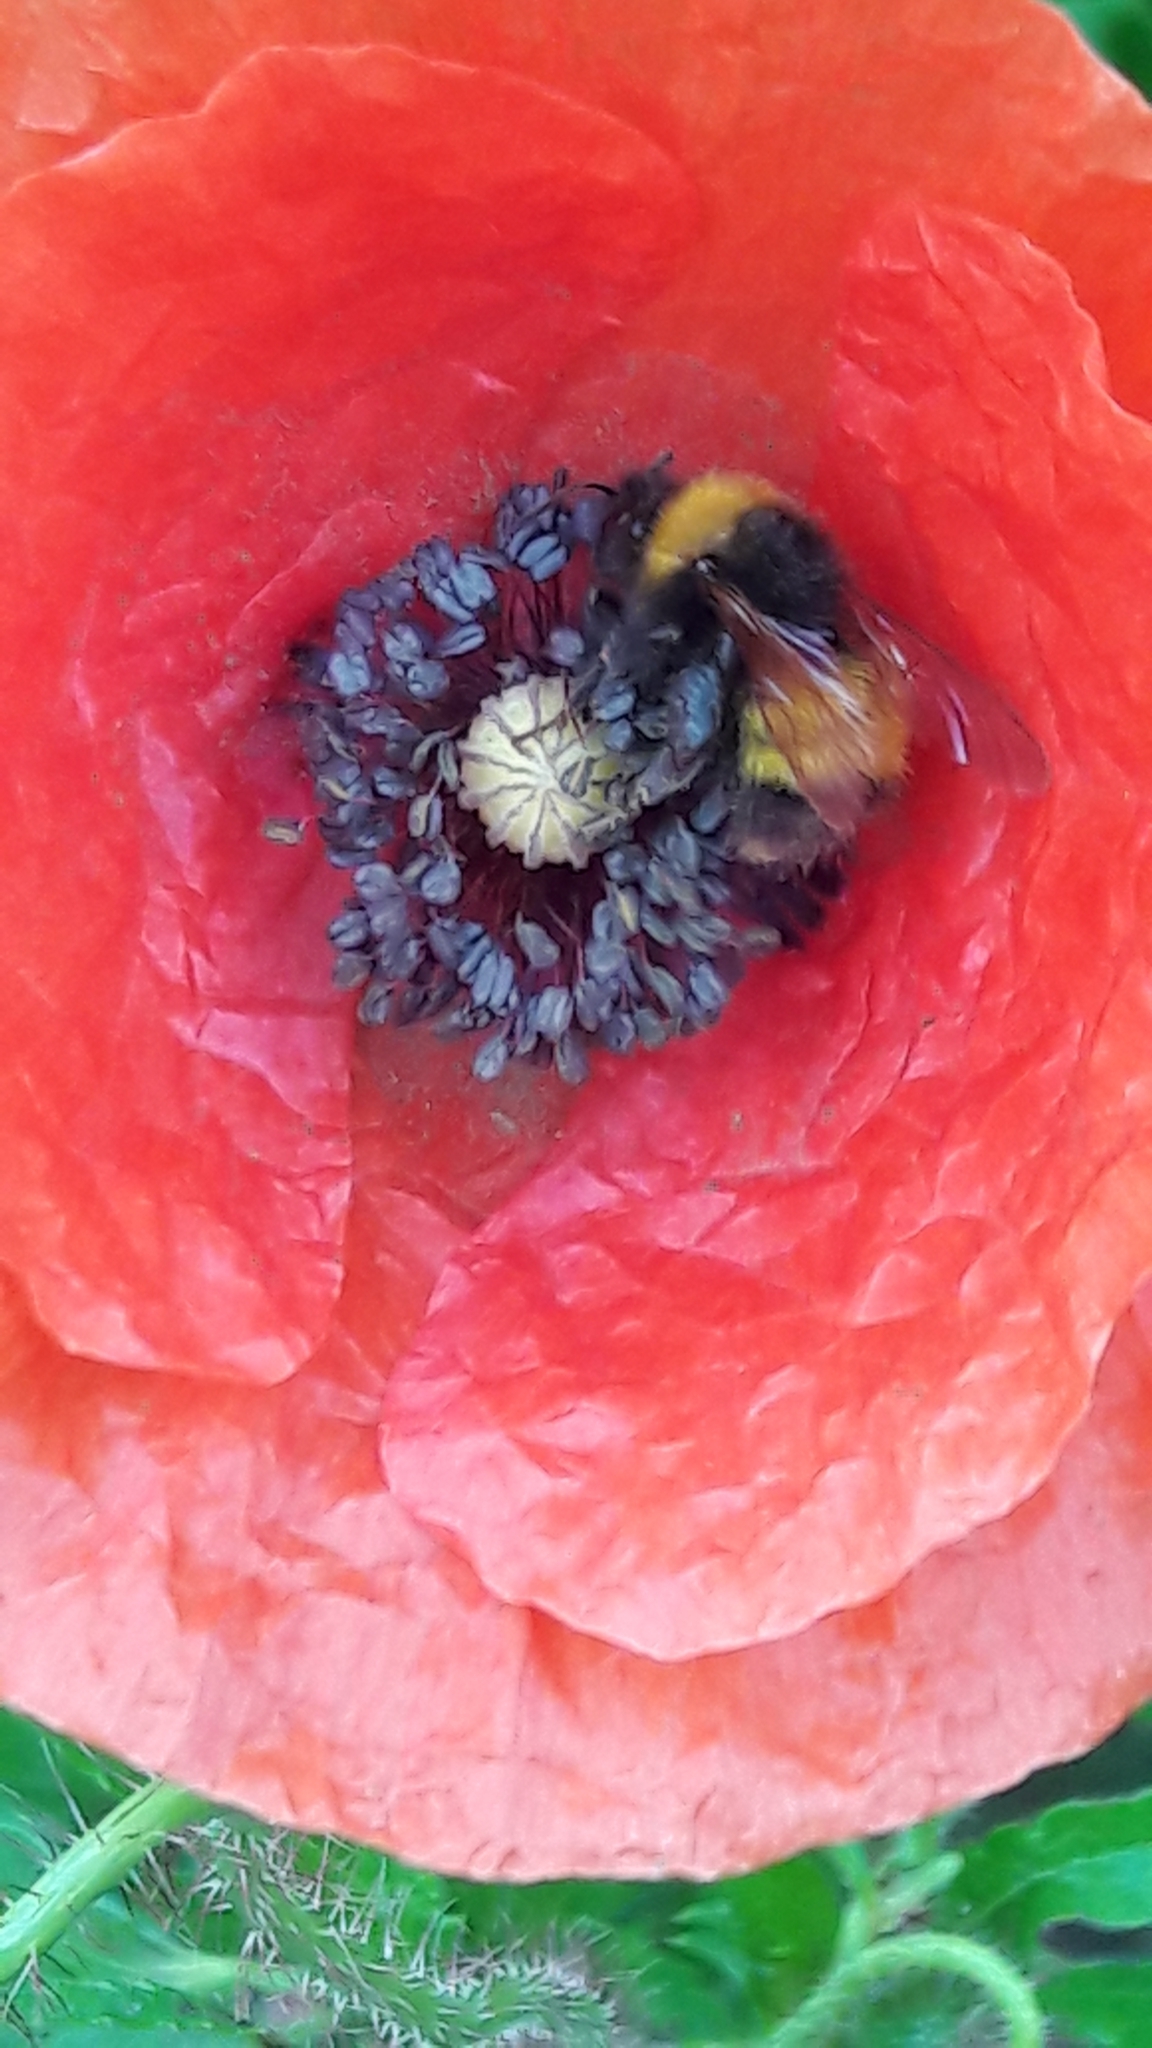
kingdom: Animalia
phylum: Arthropoda
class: Insecta
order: Hymenoptera
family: Apidae
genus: Bombus
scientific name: Bombus haematurus
